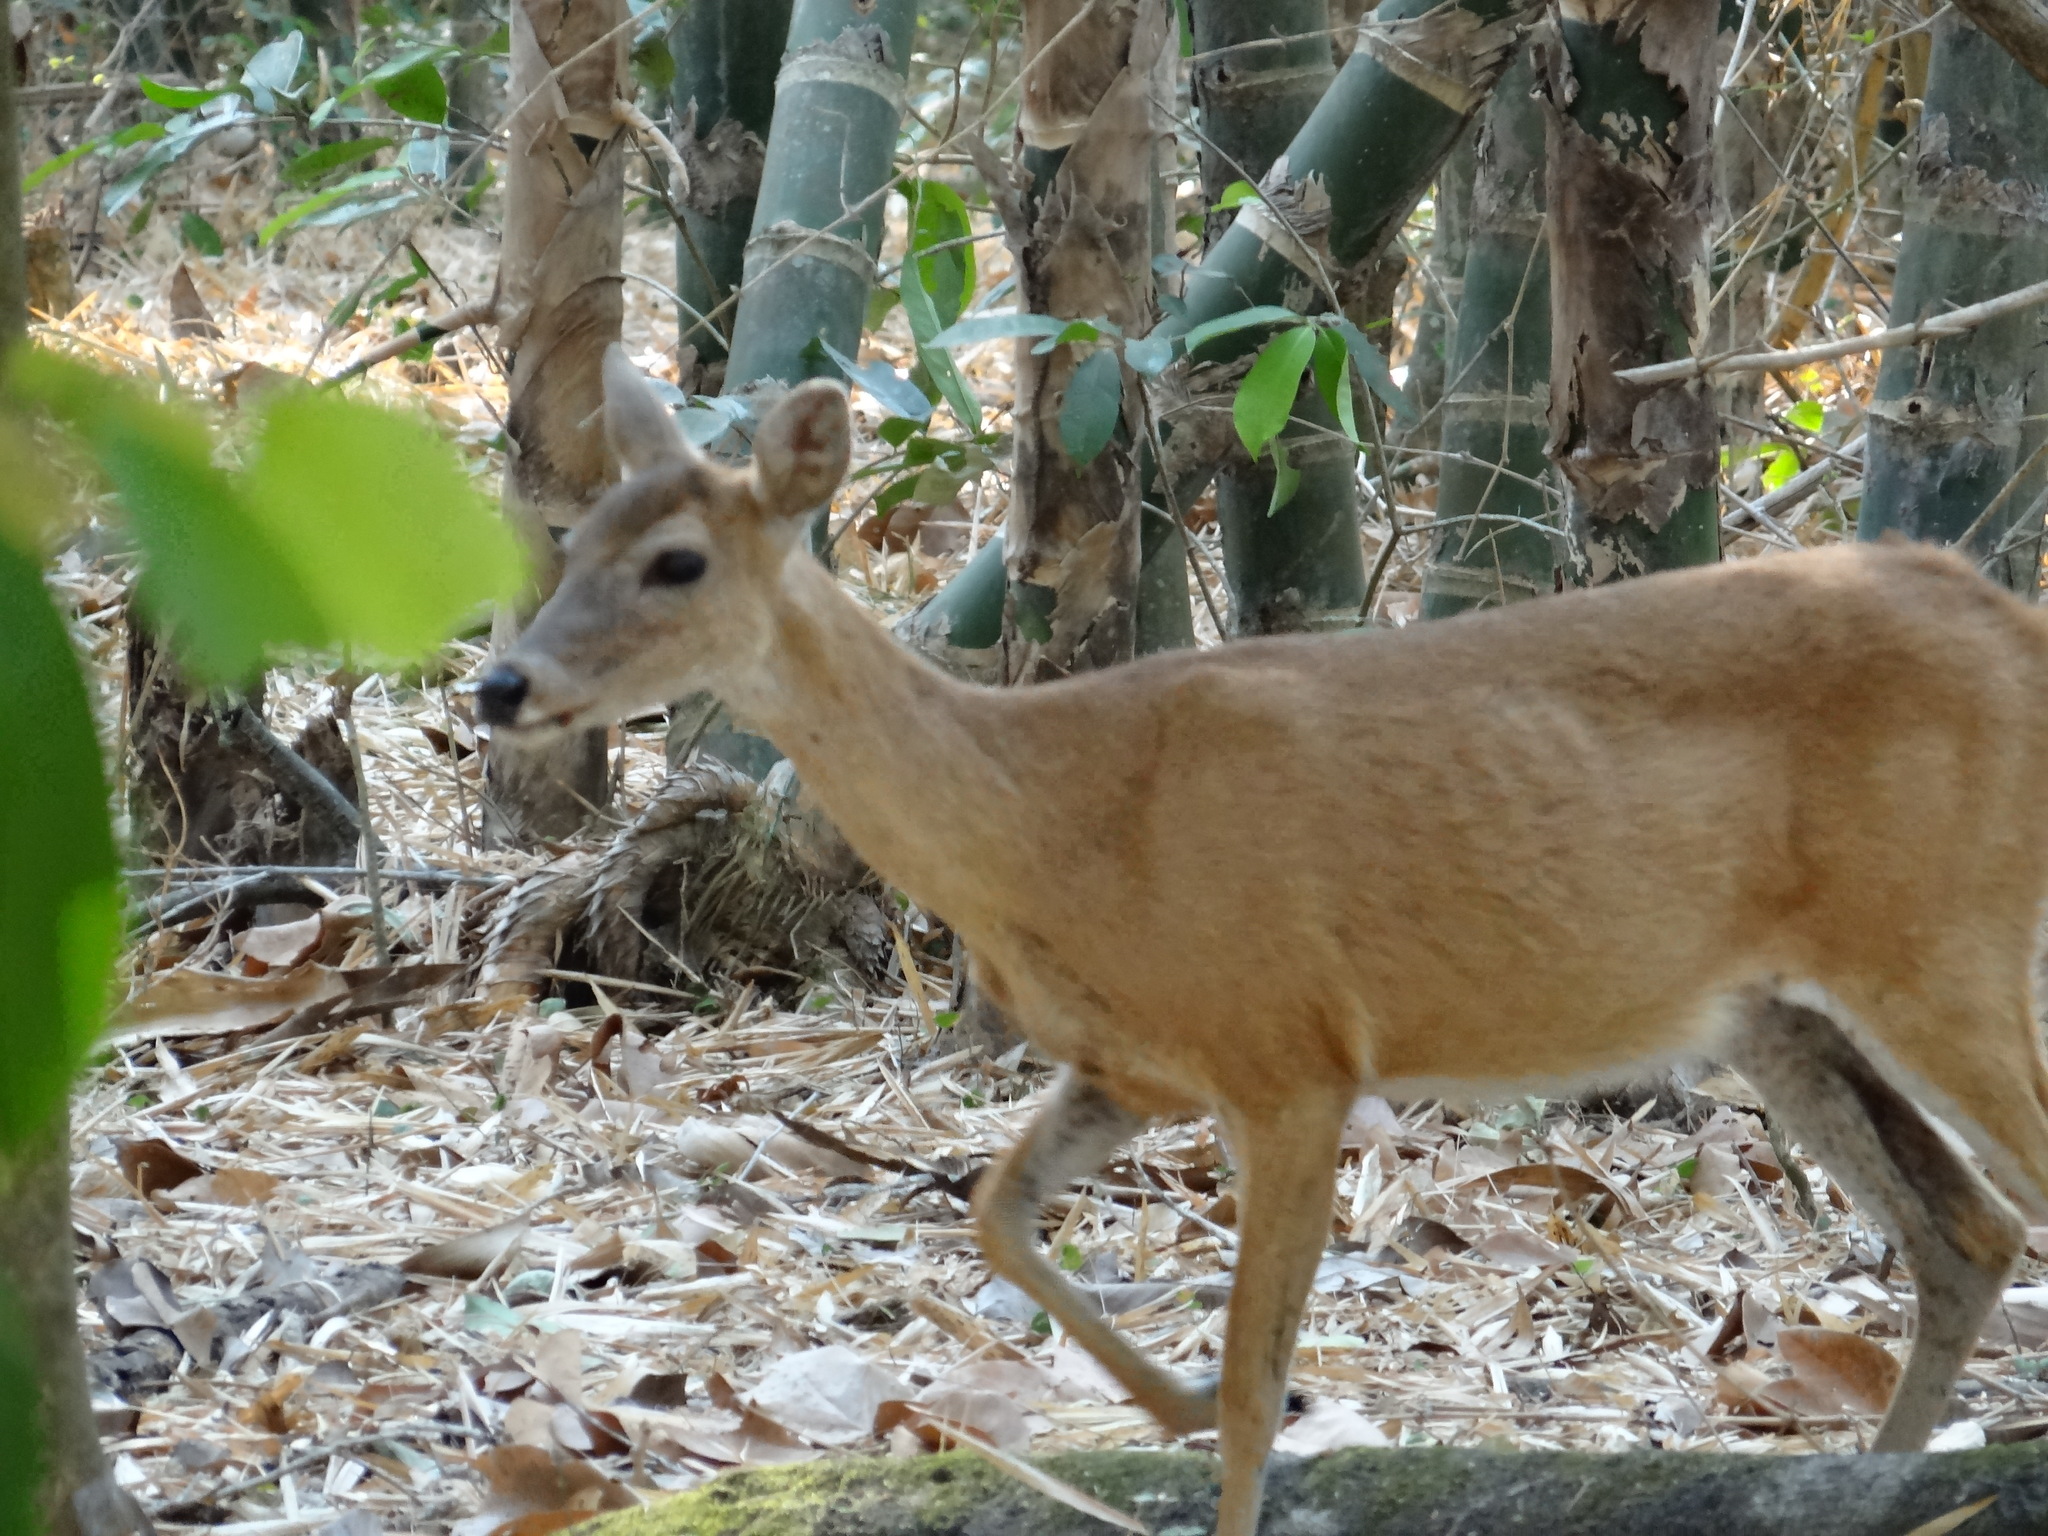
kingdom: Animalia
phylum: Chordata
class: Mammalia
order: Artiodactyla
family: Cervidae
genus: Odocoileus
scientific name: Odocoileus virginianus
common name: White-tailed deer
